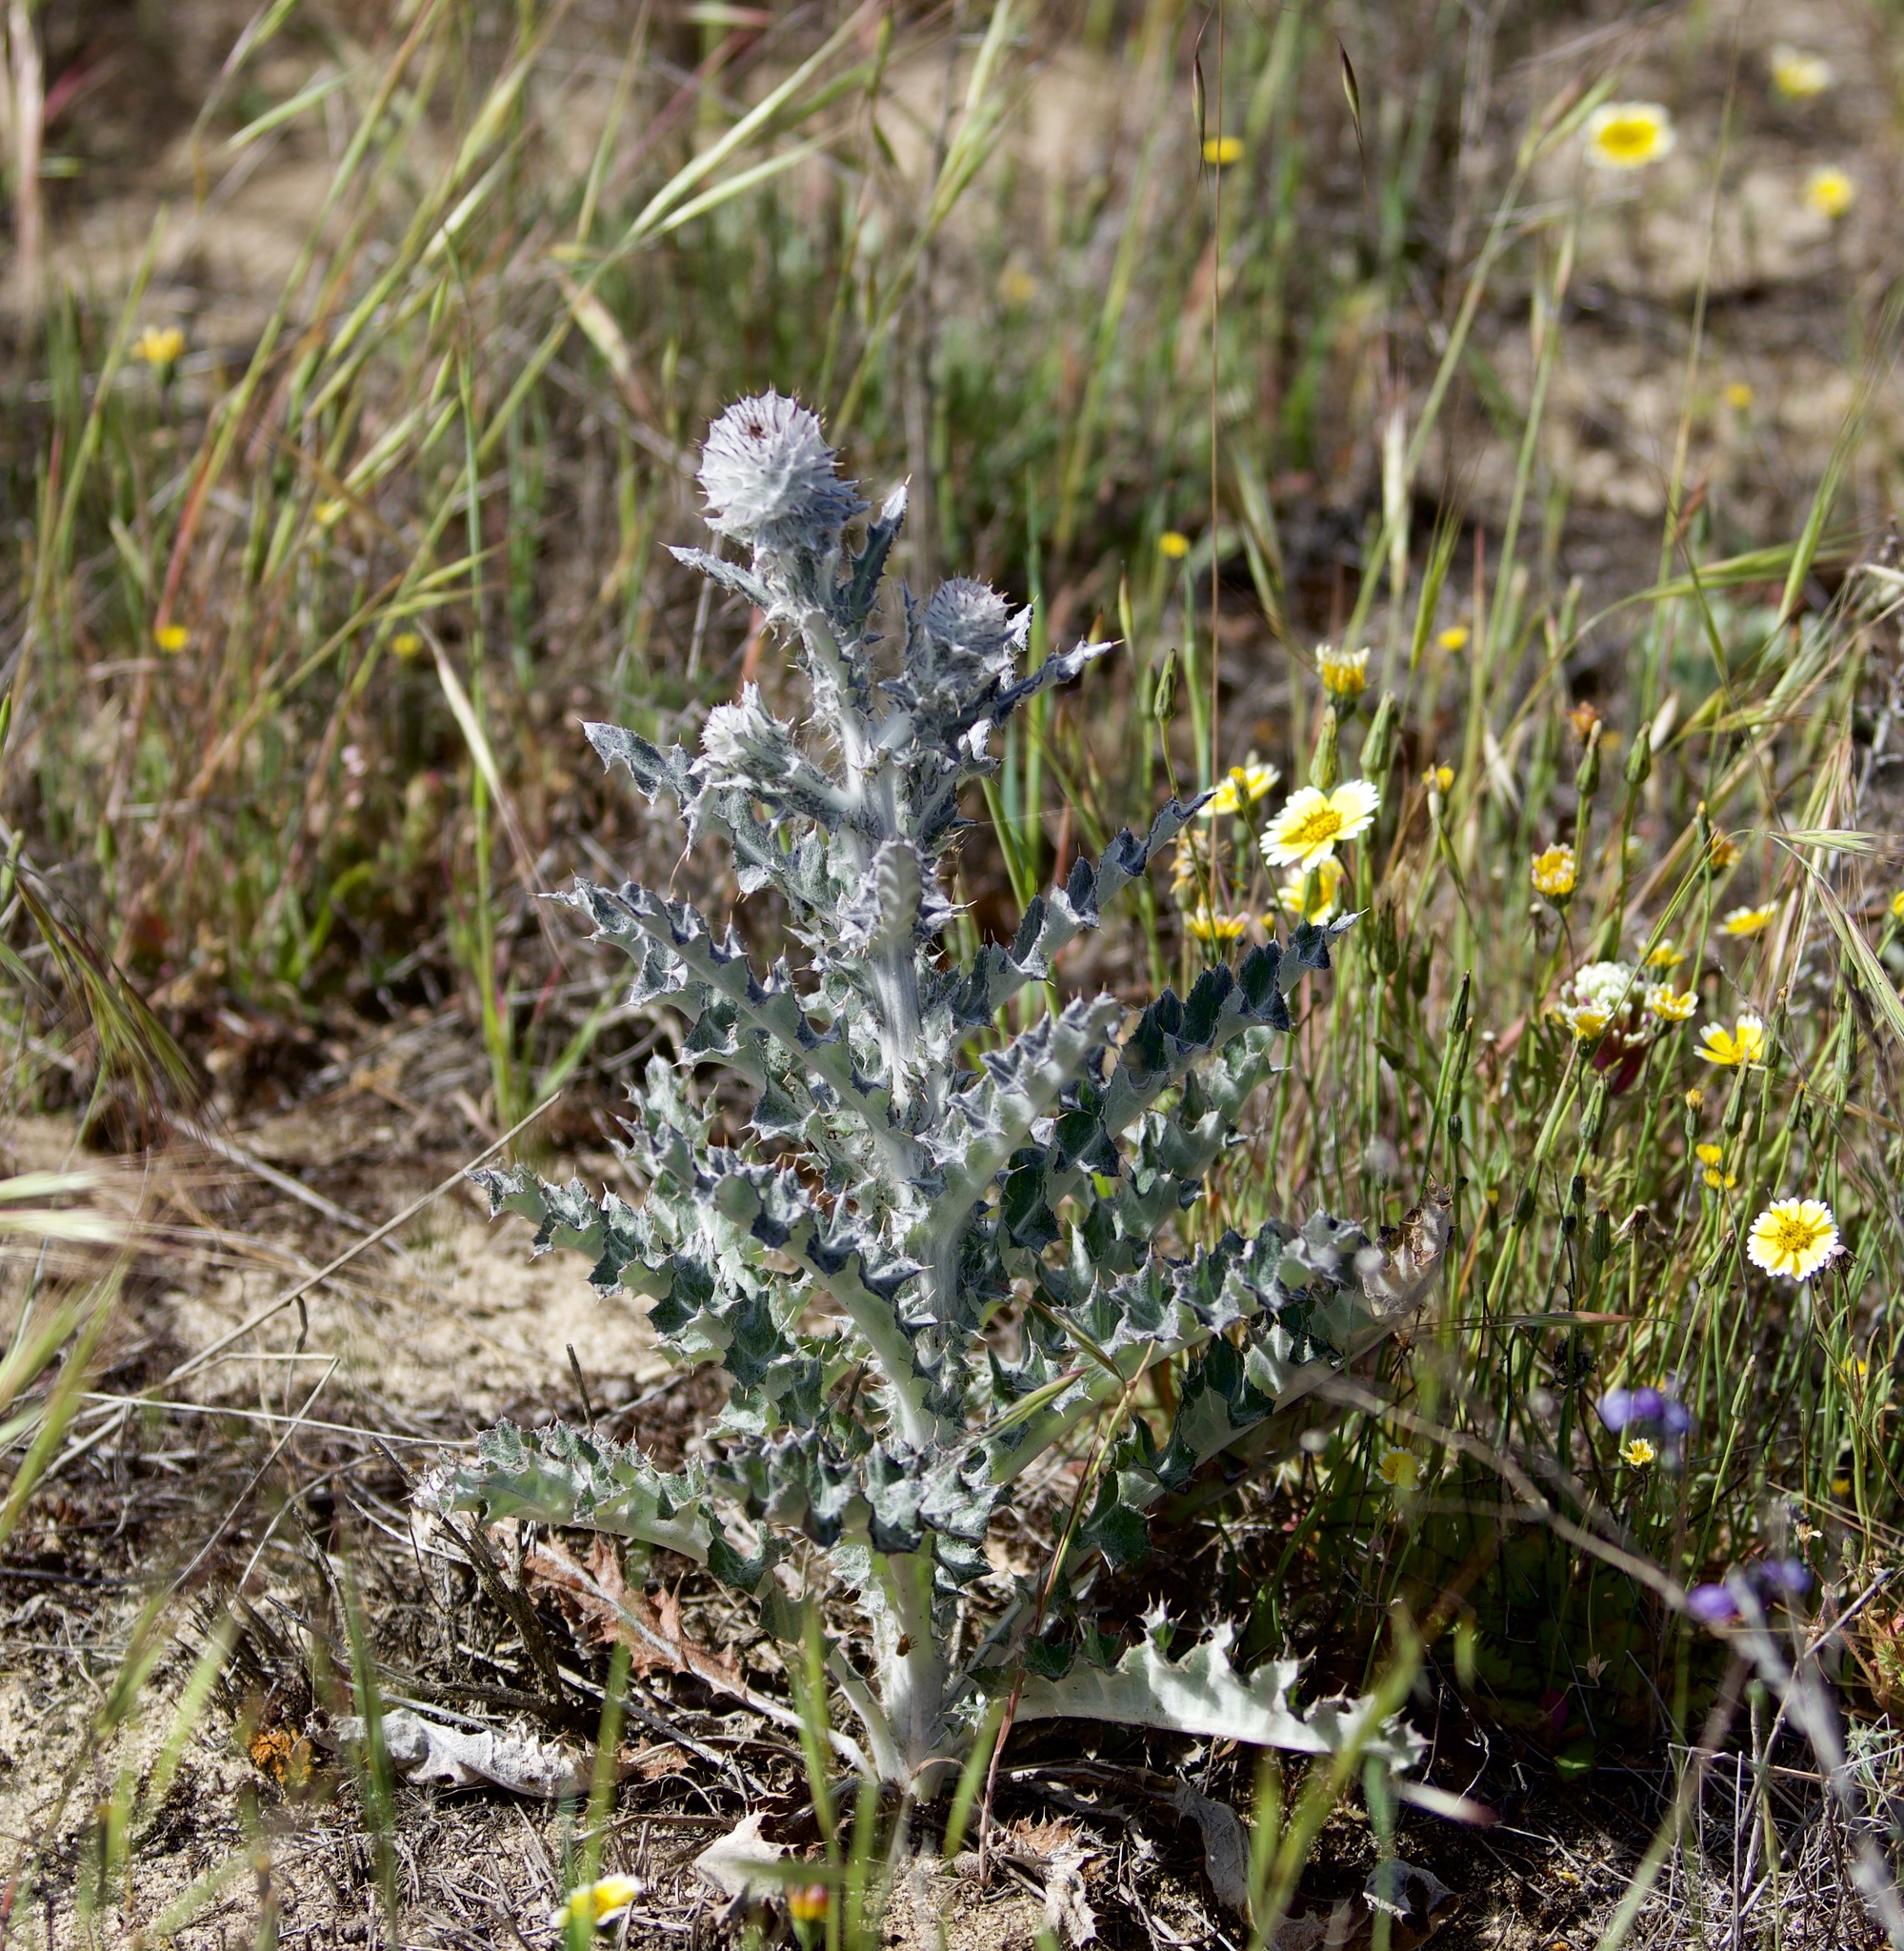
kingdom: Plantae
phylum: Tracheophyta
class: Magnoliopsida
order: Asterales
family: Asteraceae
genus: Cirsium
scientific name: Cirsium occidentale
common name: Western thistle
